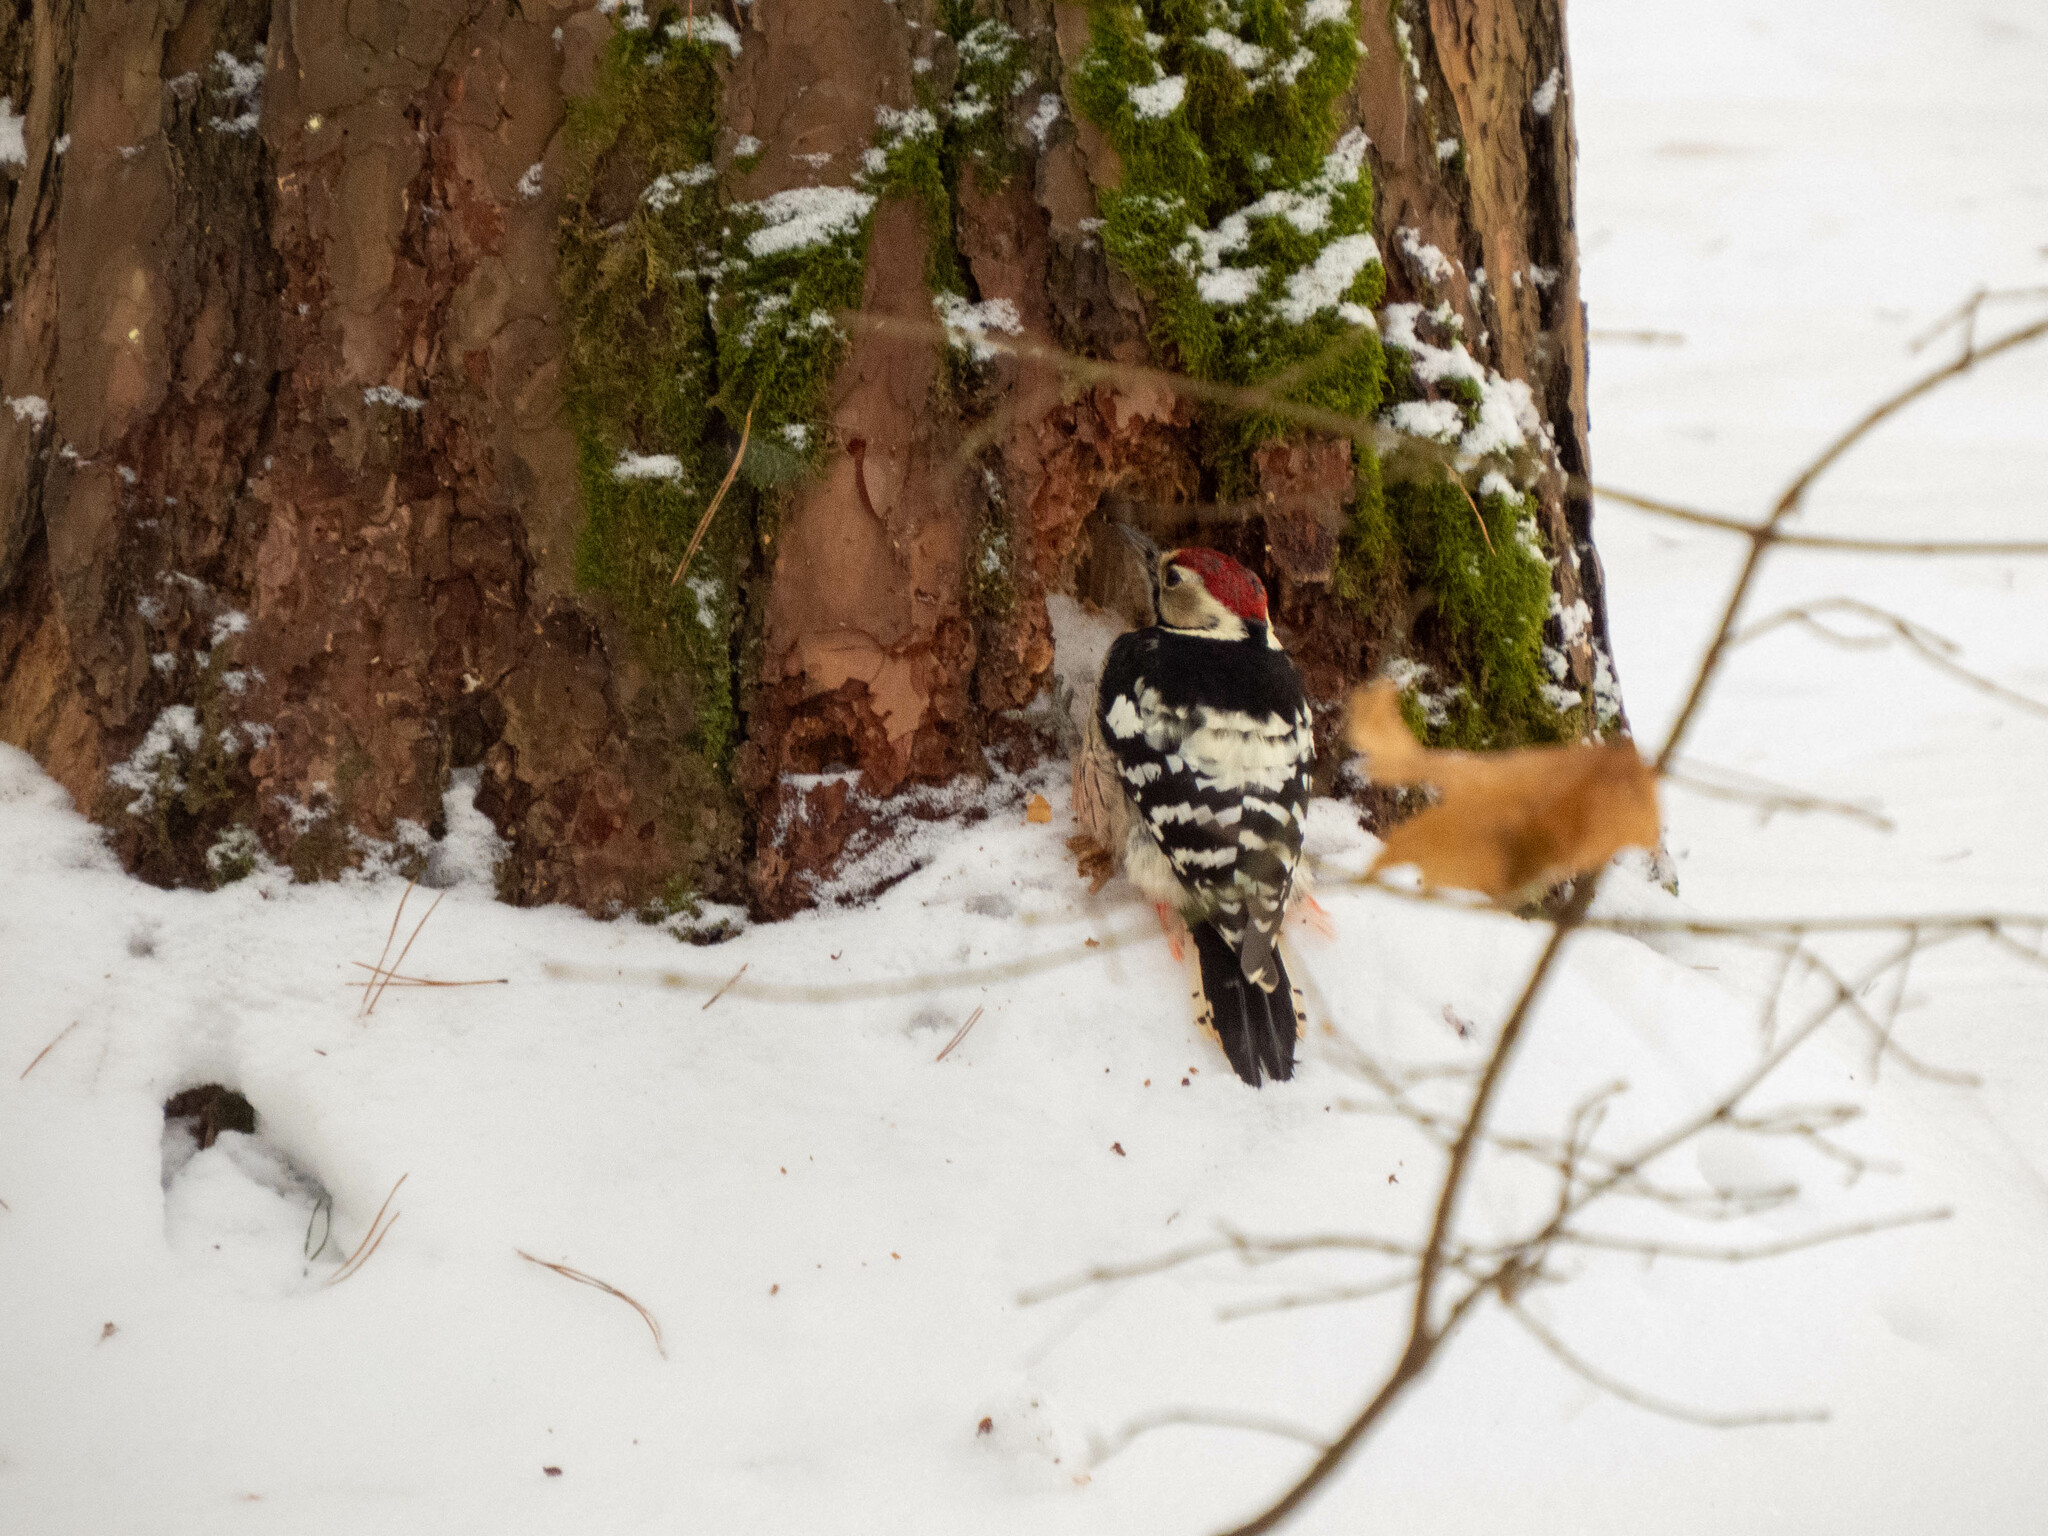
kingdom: Animalia
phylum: Chordata
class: Aves
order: Piciformes
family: Picidae
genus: Dendrocopos
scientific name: Dendrocopos leucotos
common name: White-backed woodpecker
